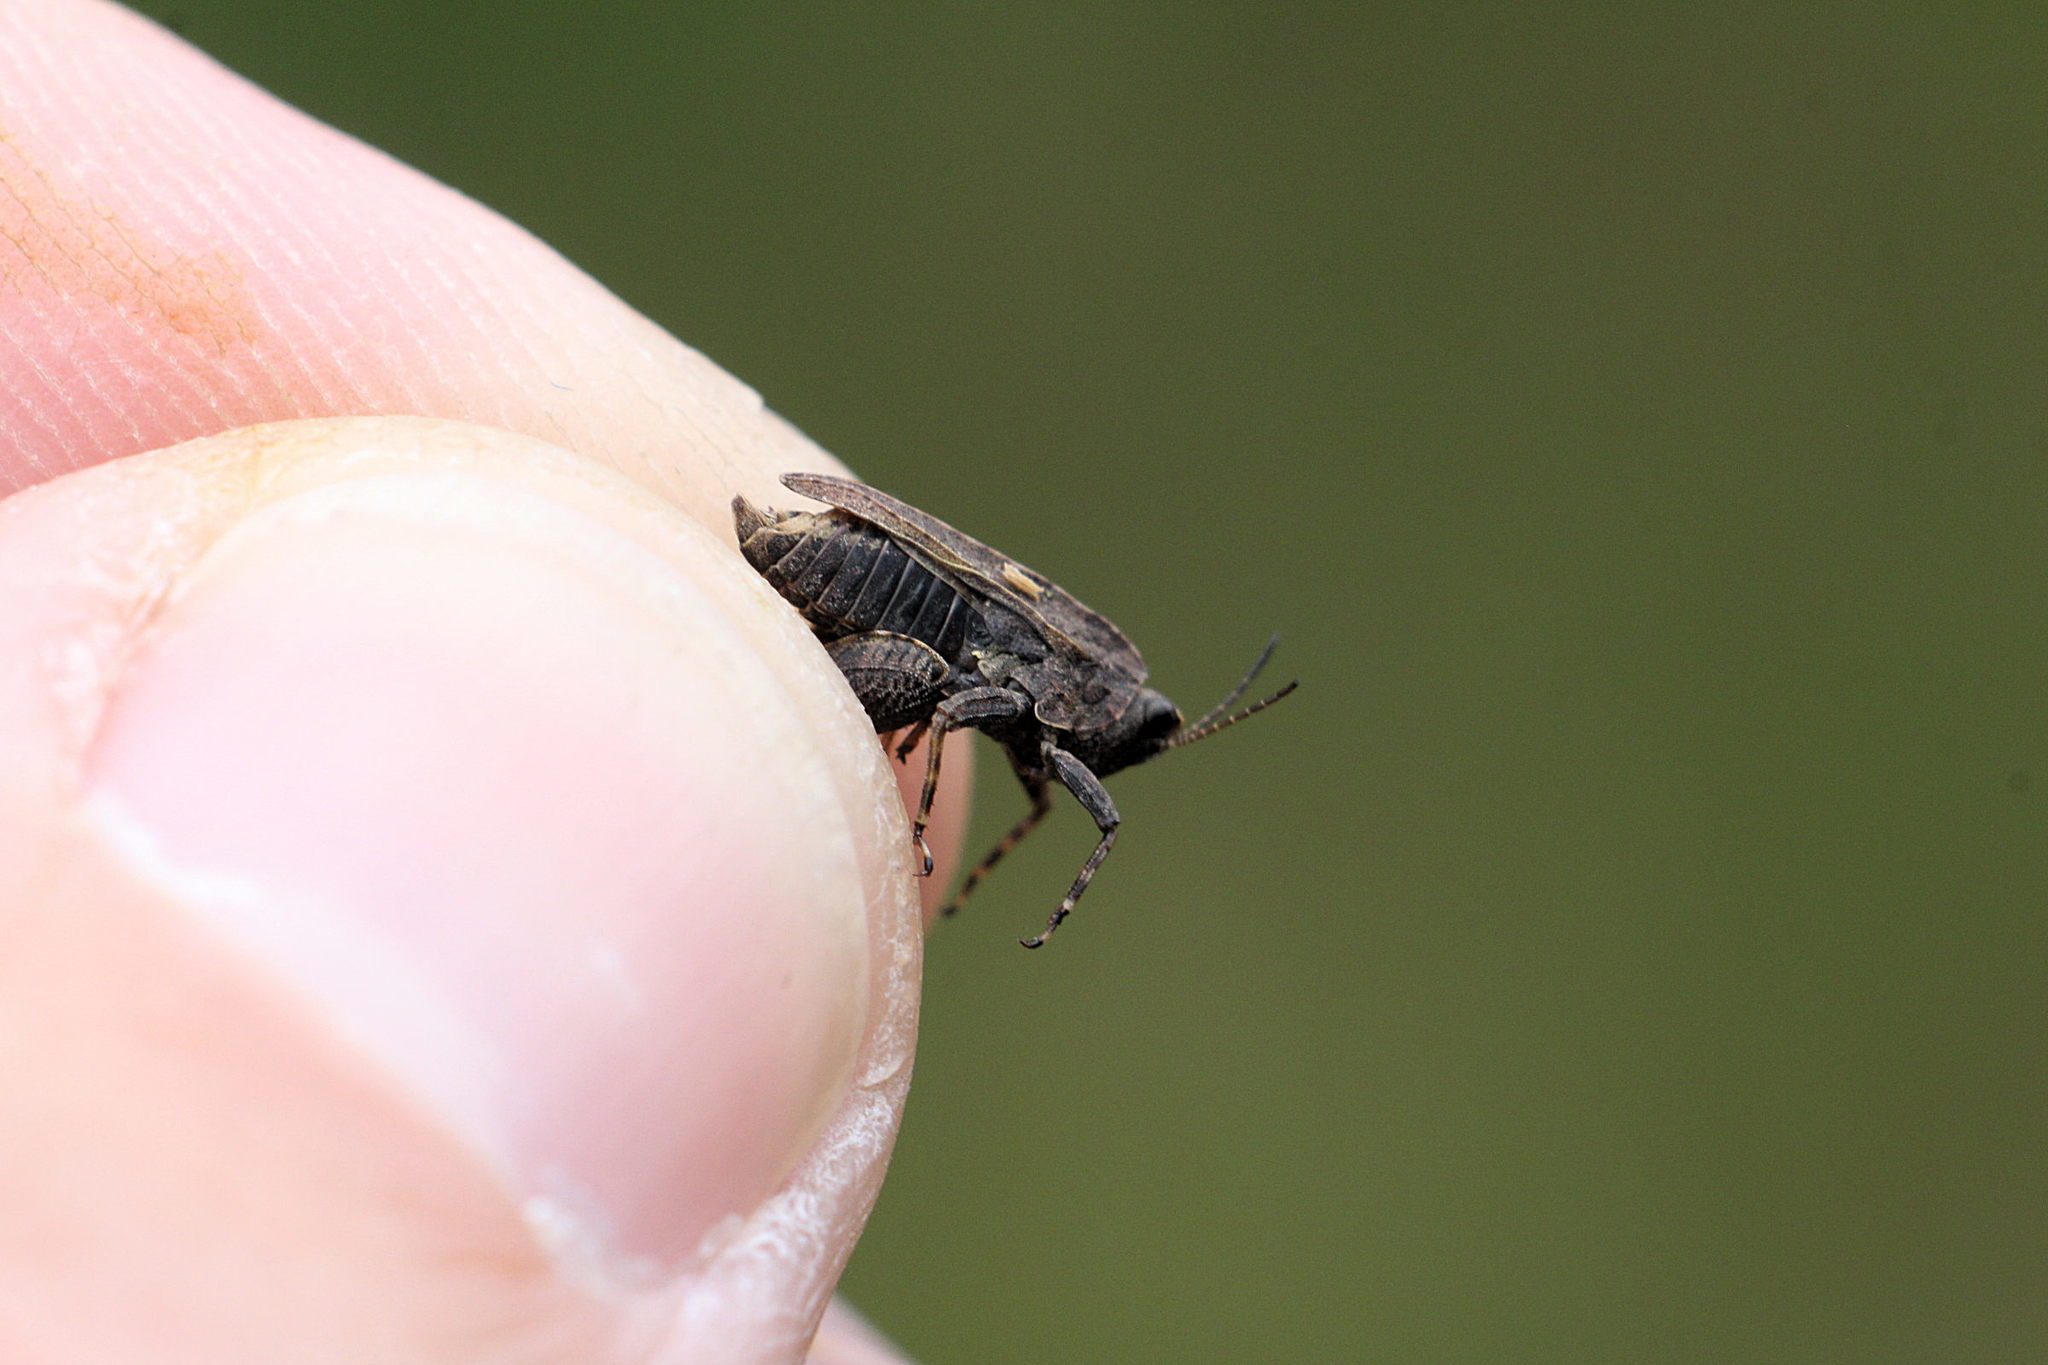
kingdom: Animalia
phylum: Arthropoda
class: Insecta
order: Orthoptera
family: Tetrigidae
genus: Tetrix
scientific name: Tetrix undulata
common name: Common groundhopper
